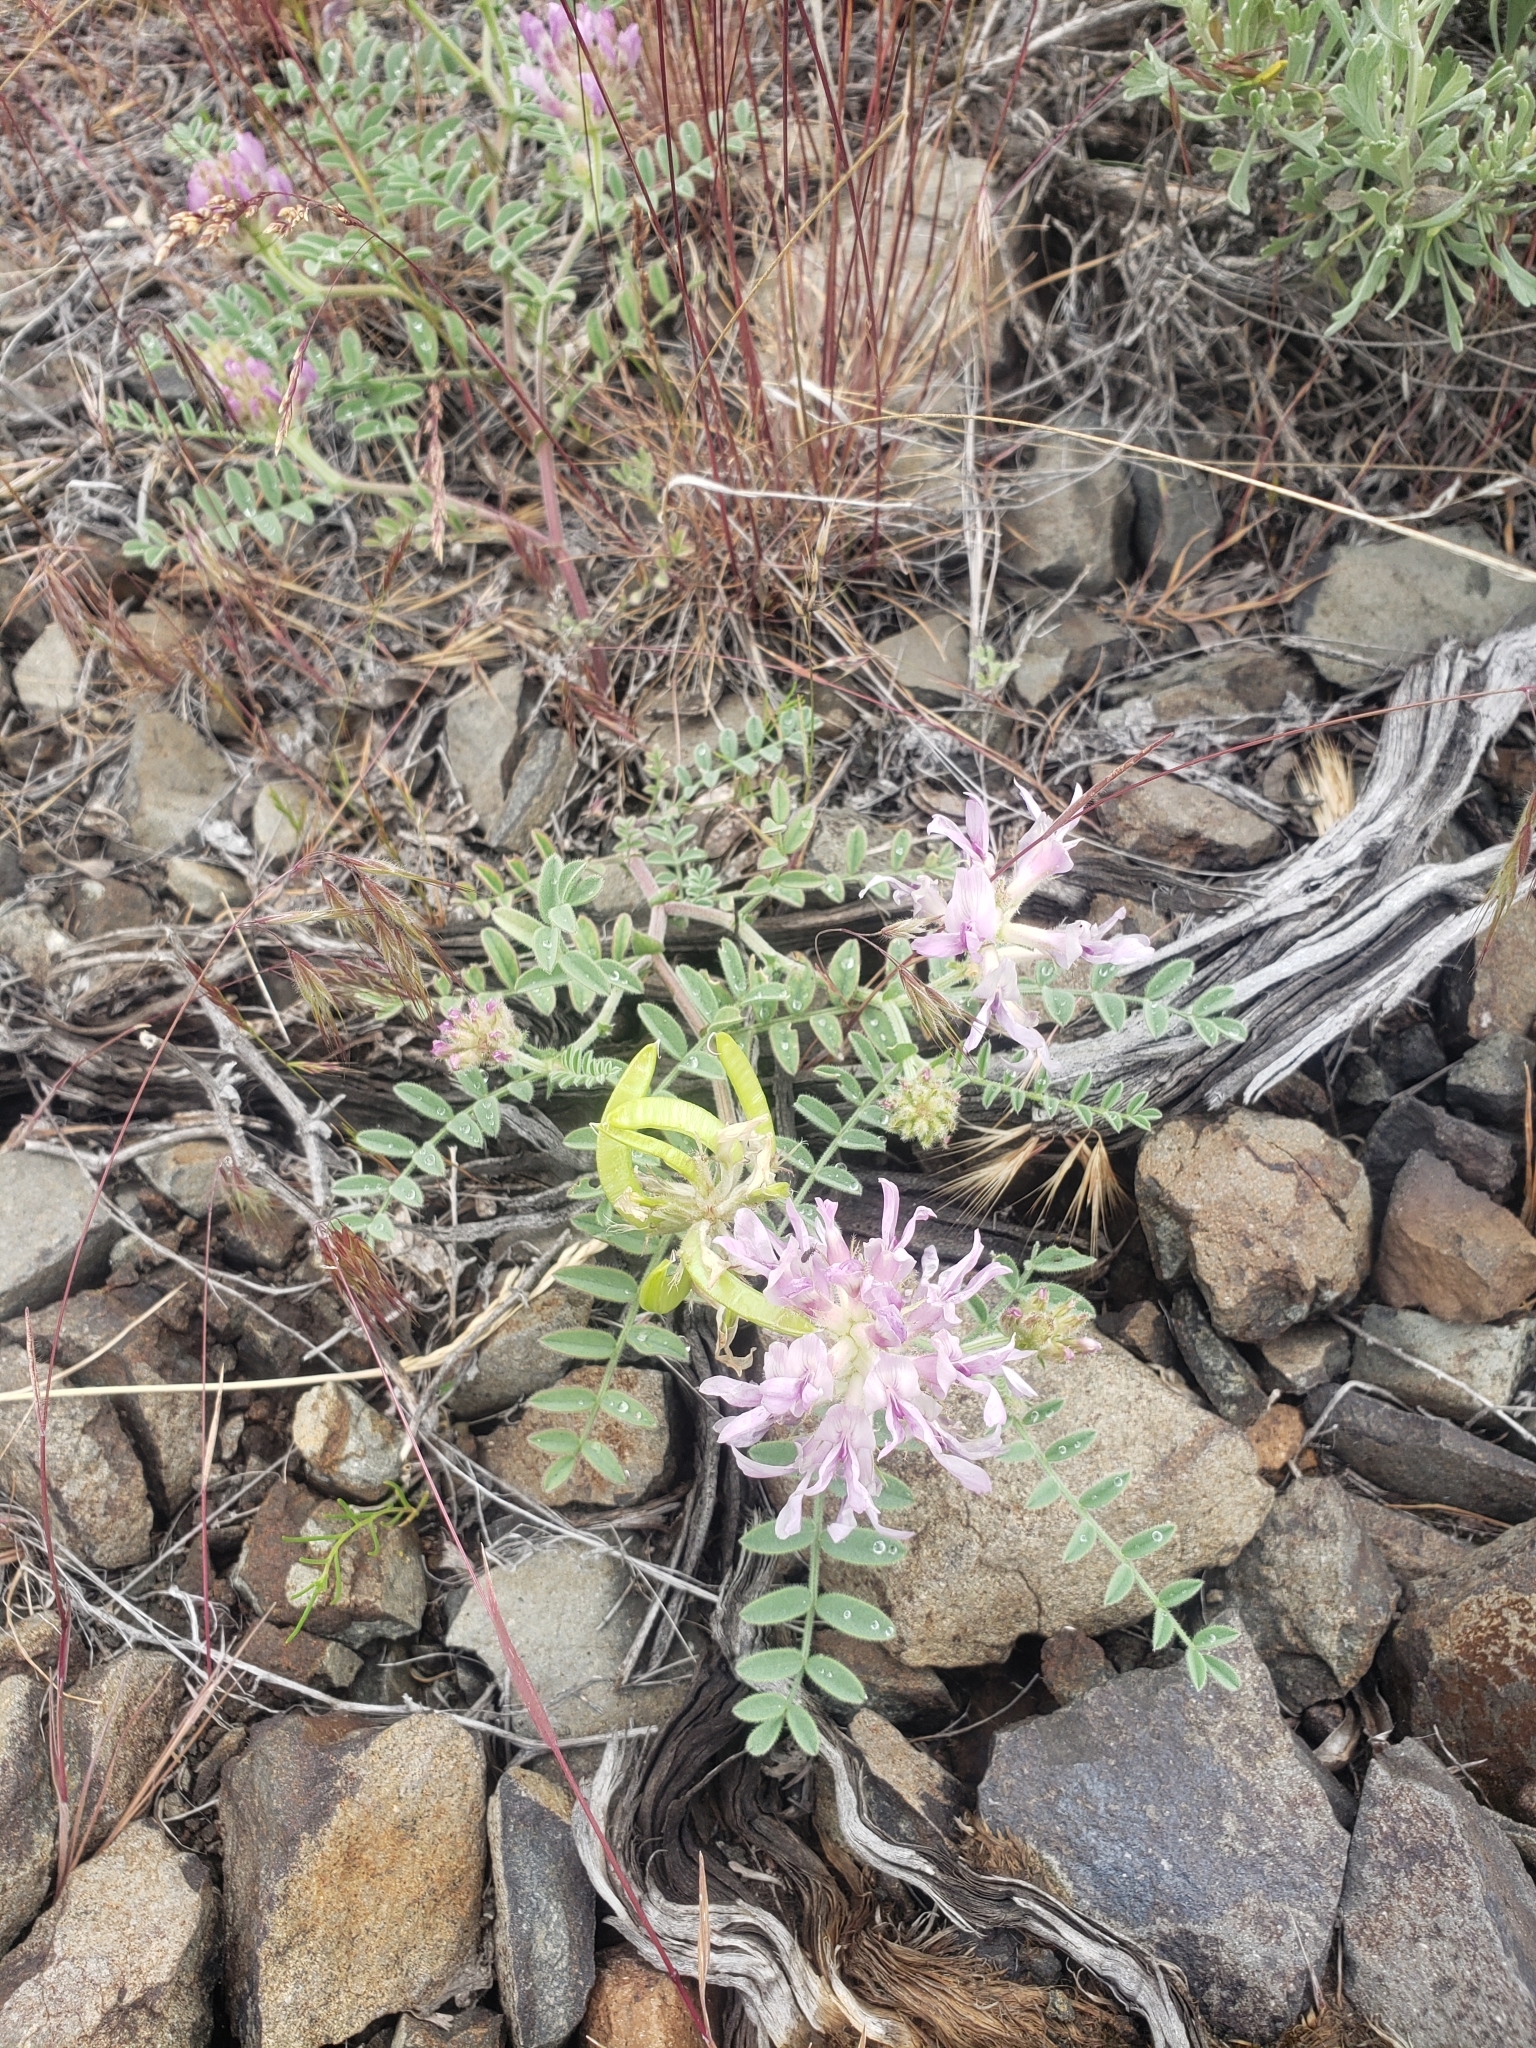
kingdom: Plantae
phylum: Tracheophyta
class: Magnoliopsida
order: Fabales
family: Fabaceae
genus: Astragalus
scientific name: Astragalus succumbens
